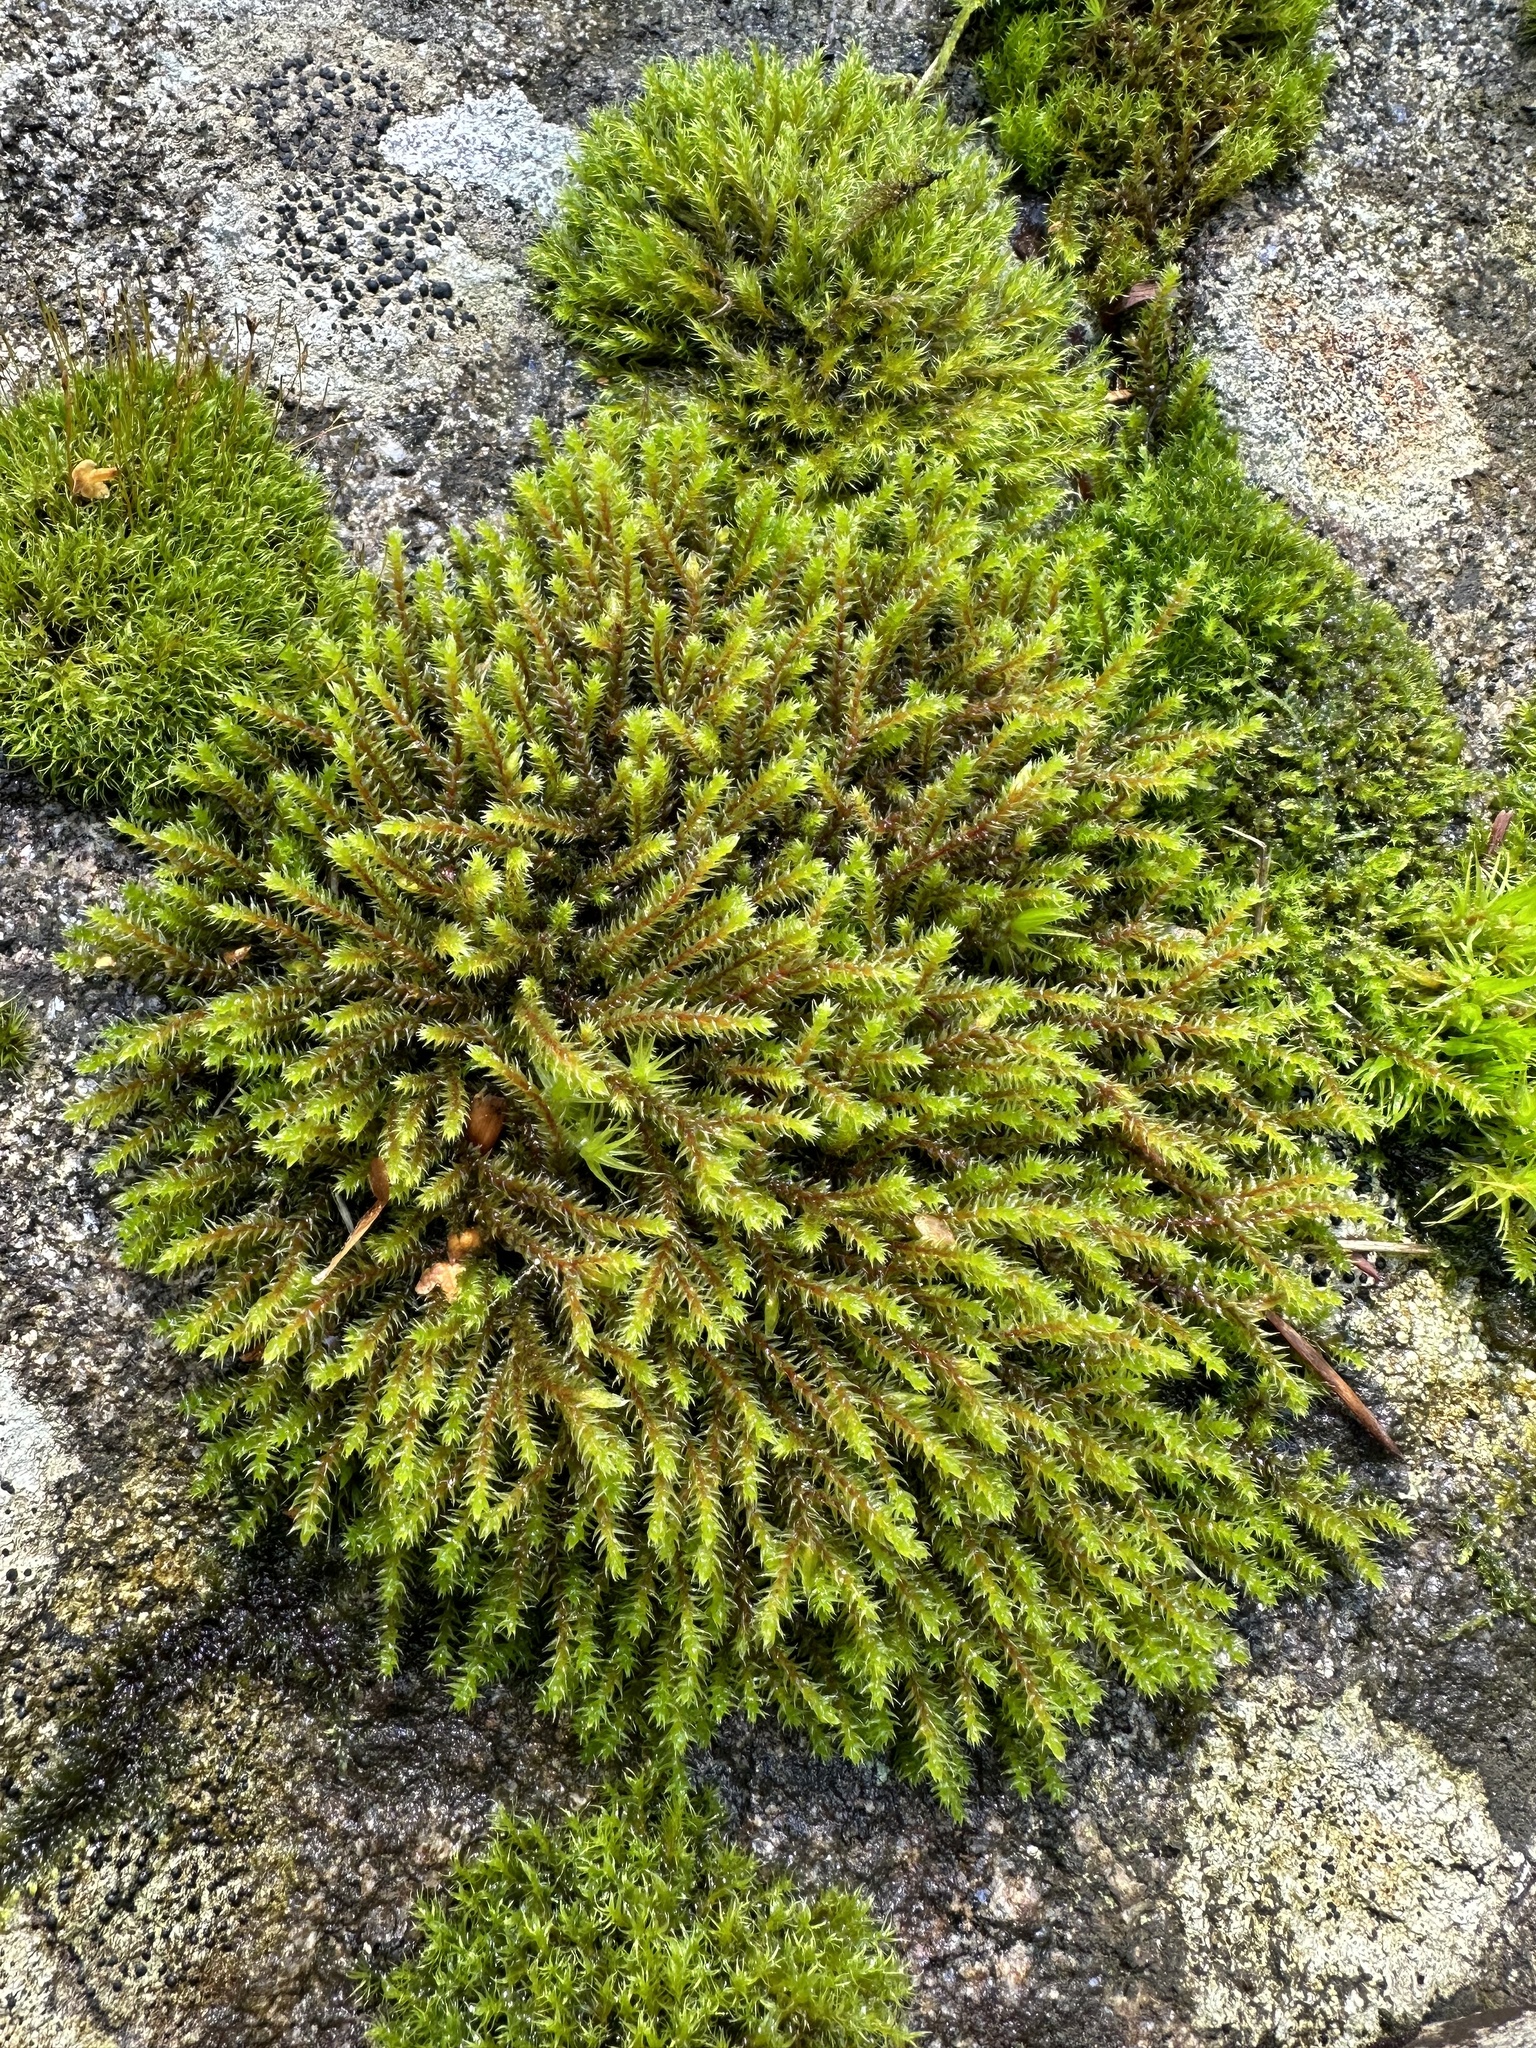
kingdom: Plantae
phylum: Bryophyta
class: Bryopsida
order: Hedwigiales
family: Hedwigiaceae
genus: Hedwigia
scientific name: Hedwigia ciliata
